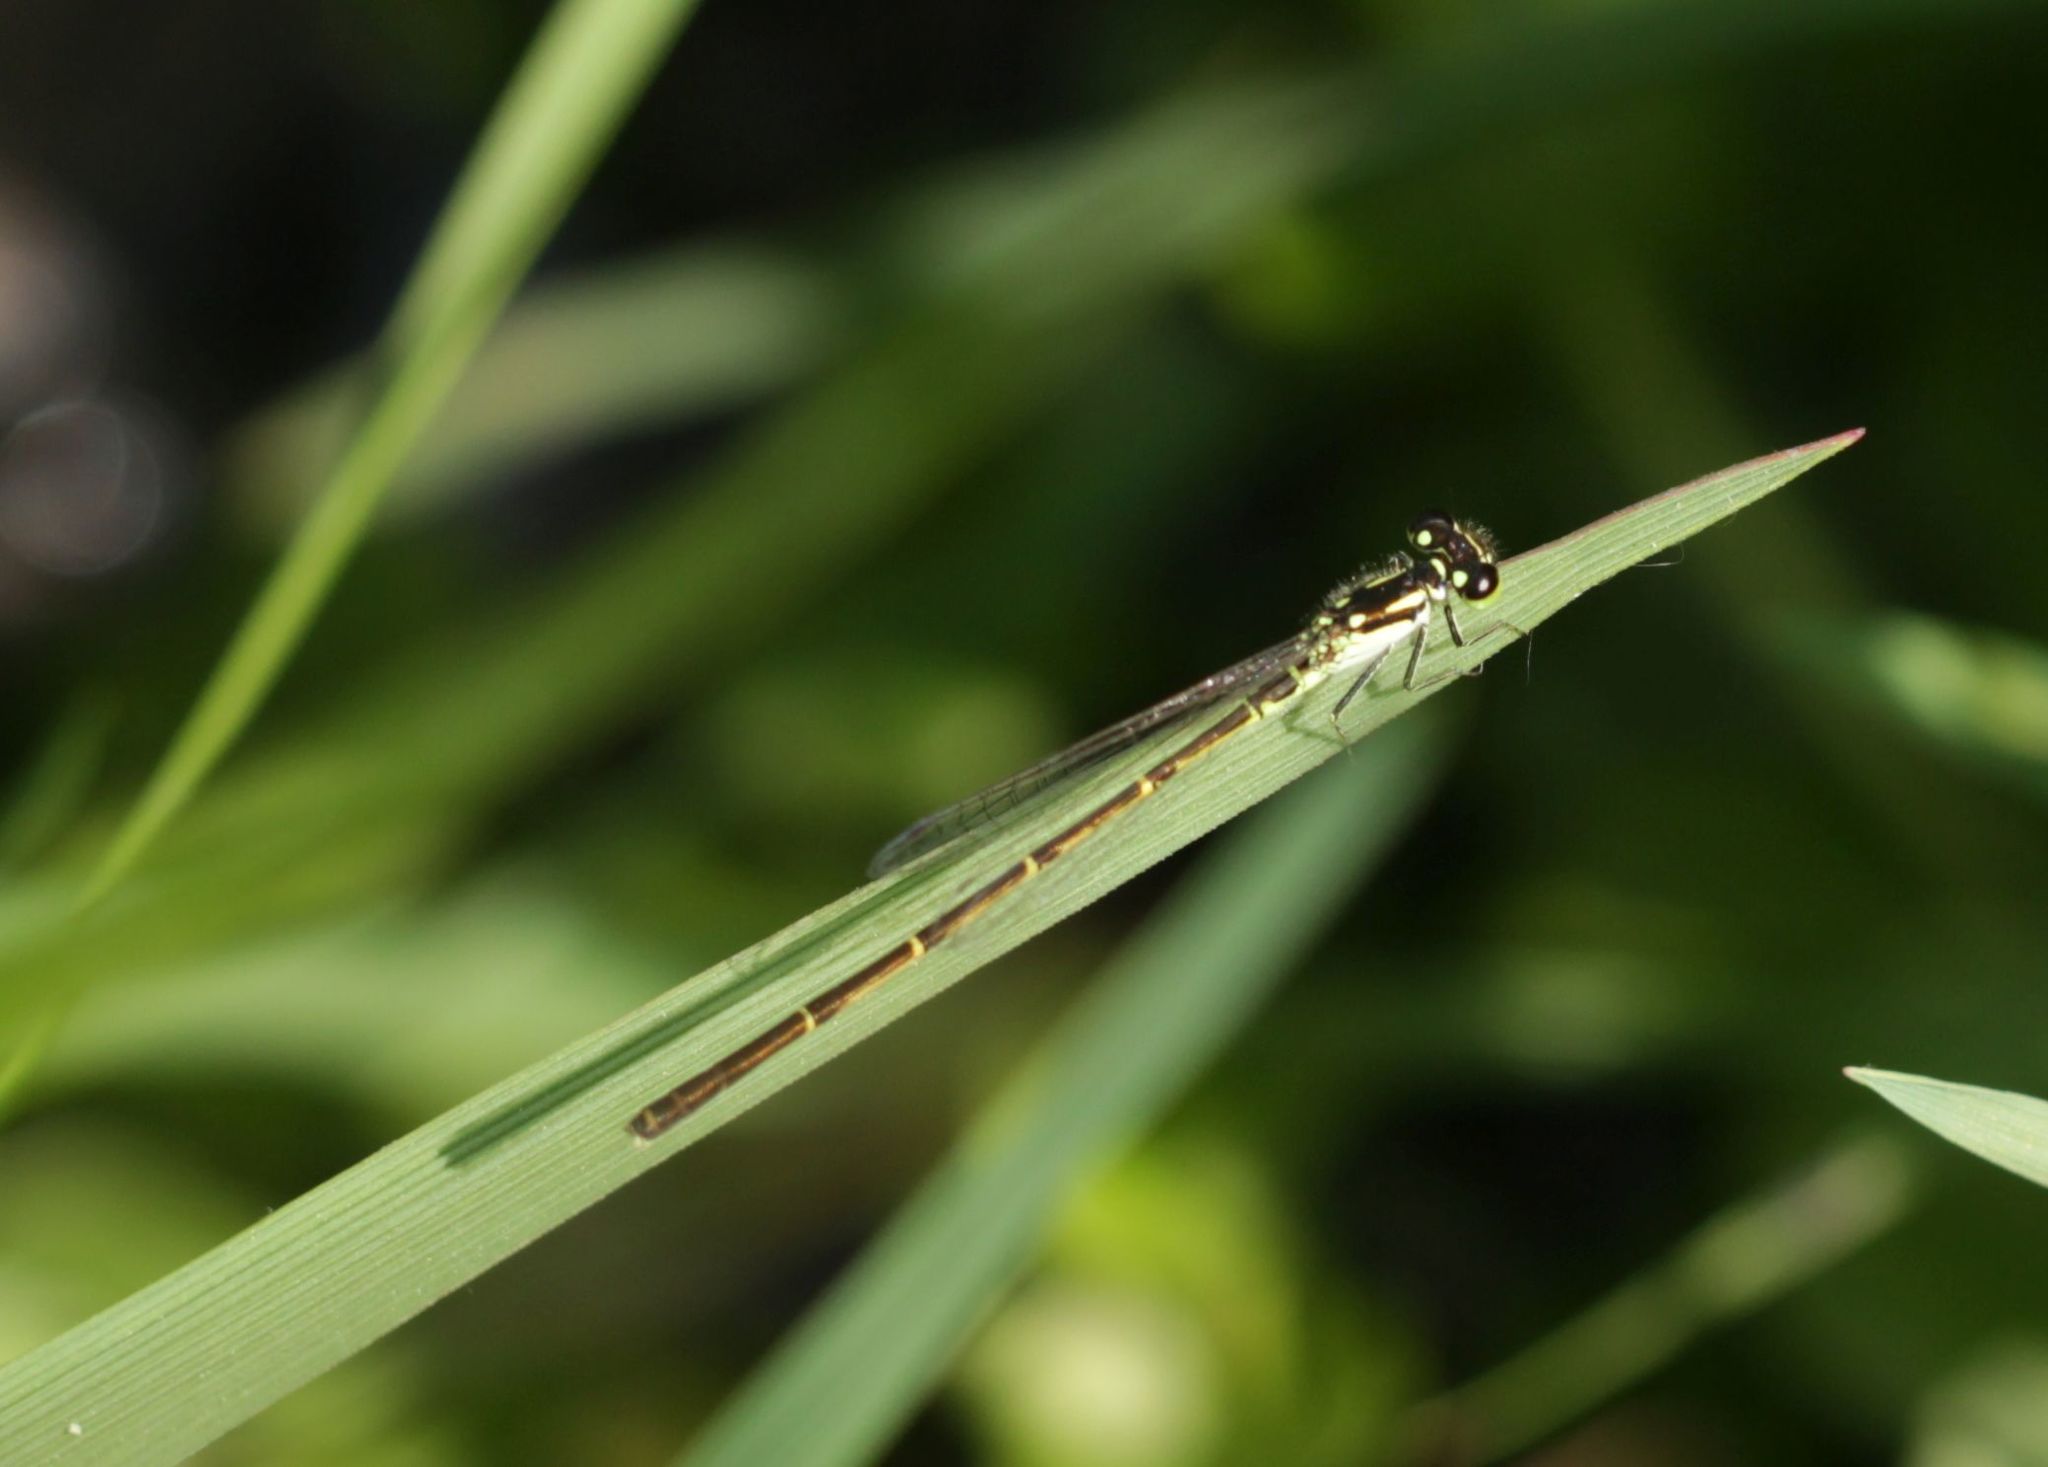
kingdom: Animalia
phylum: Arthropoda
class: Insecta
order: Odonata
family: Coenagrionidae
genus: Ischnura
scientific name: Ischnura posita
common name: Fragile forktail
